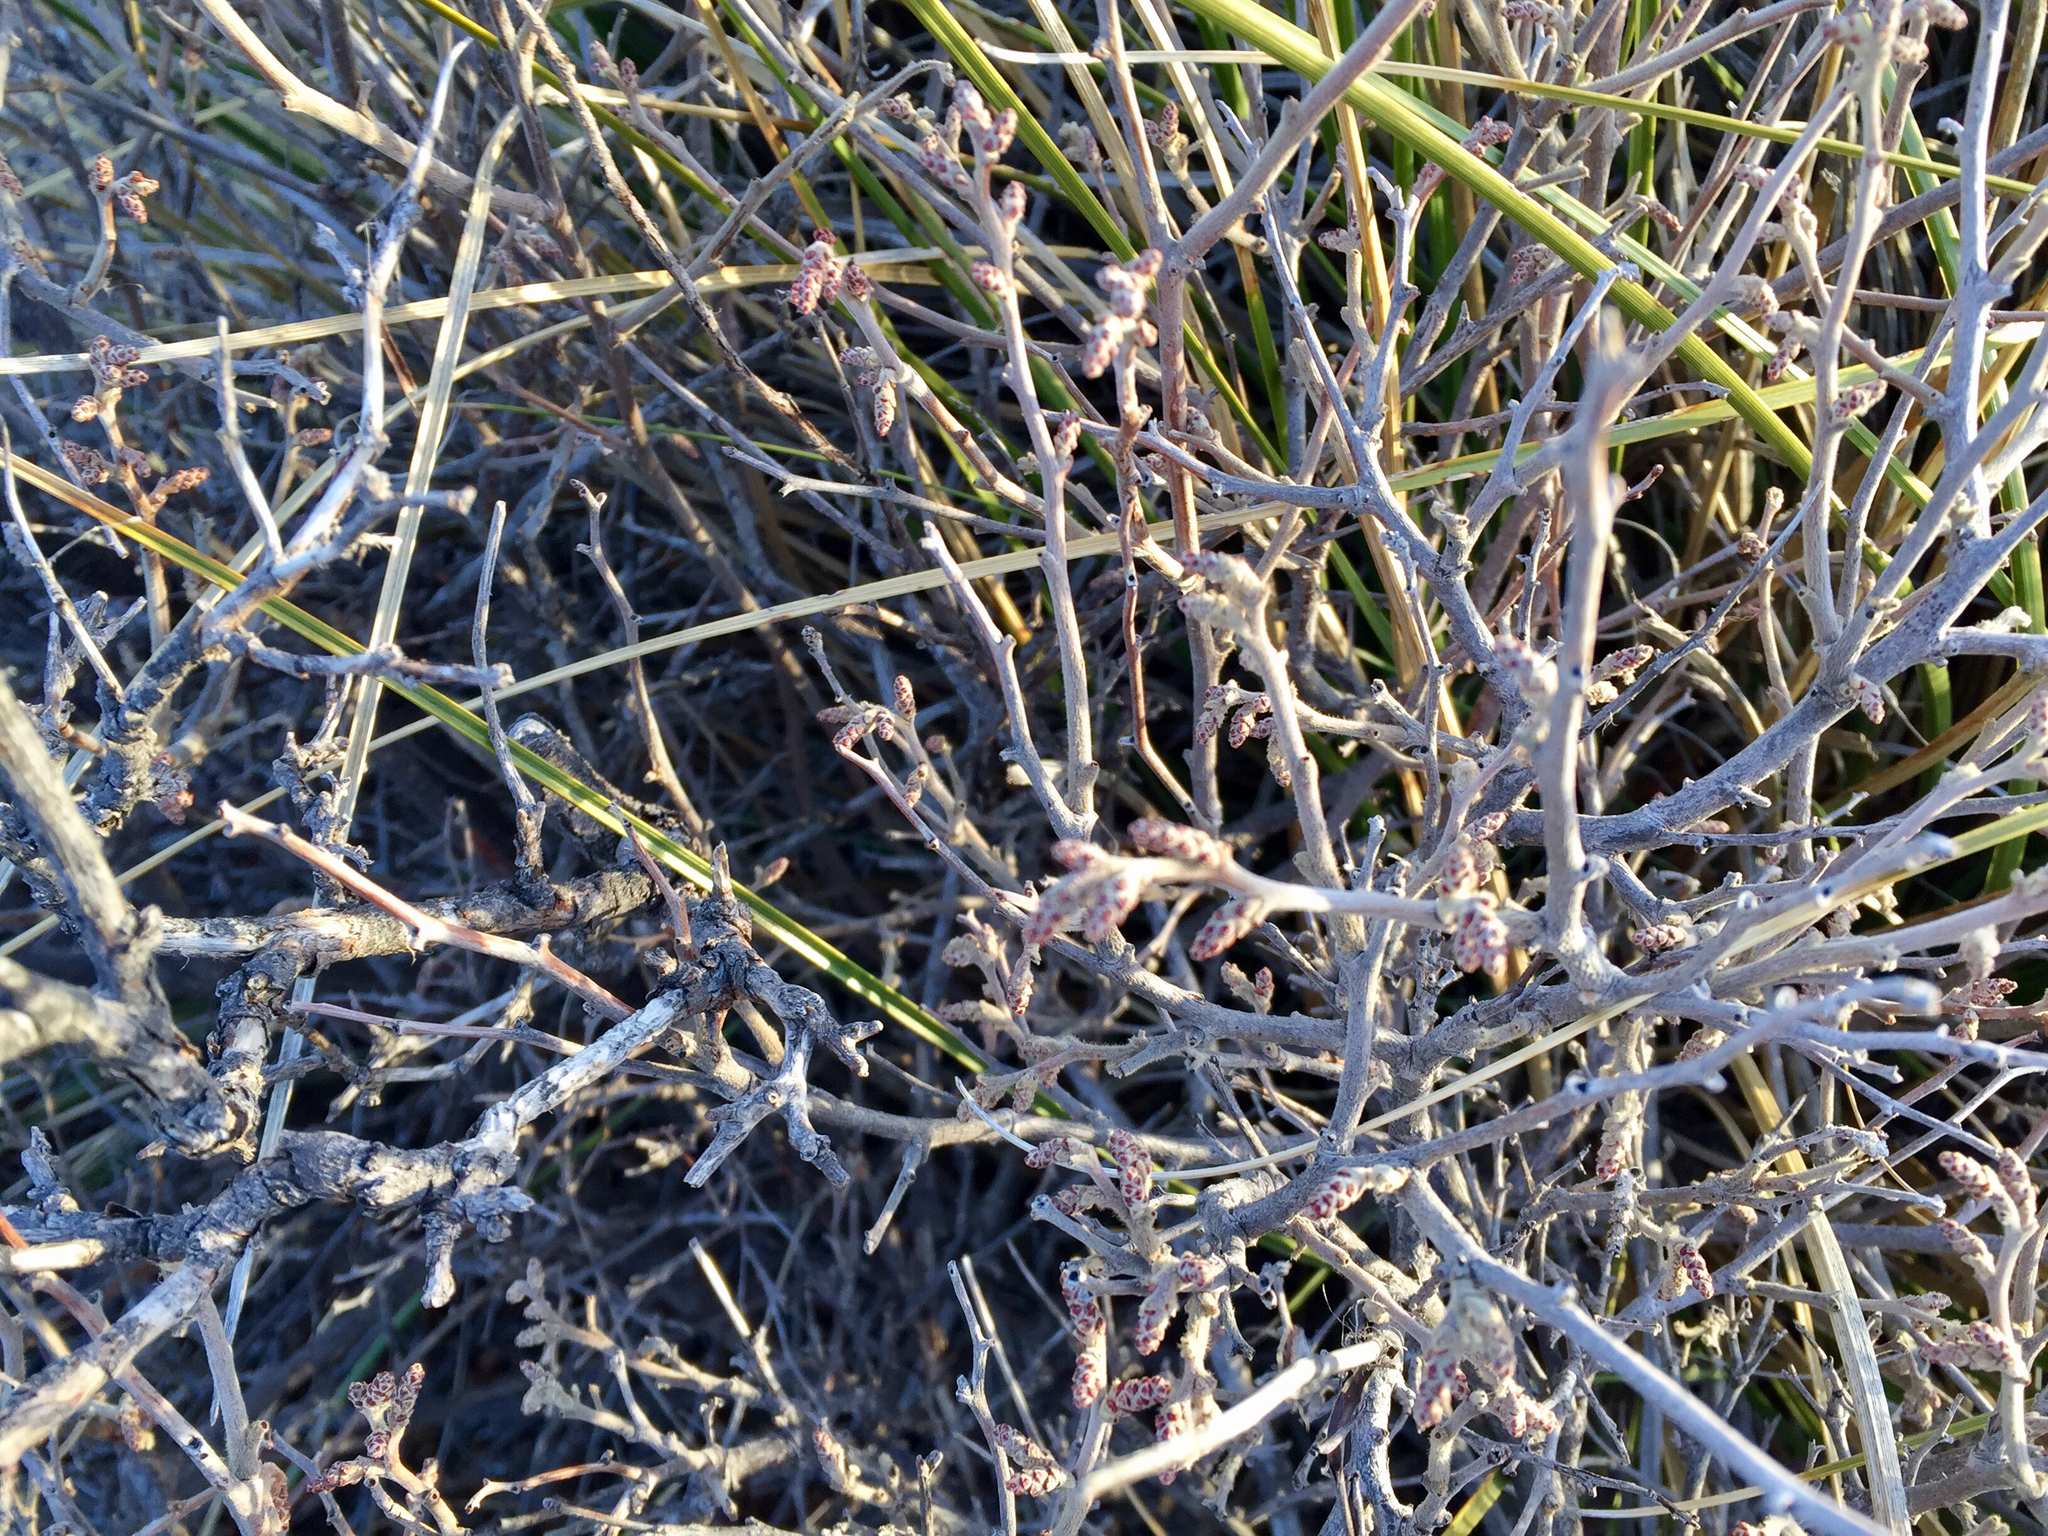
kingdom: Plantae
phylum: Tracheophyta
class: Magnoliopsida
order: Sapindales
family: Anacardiaceae
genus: Rhus
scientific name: Rhus aromatica
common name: Aromatic sumac
